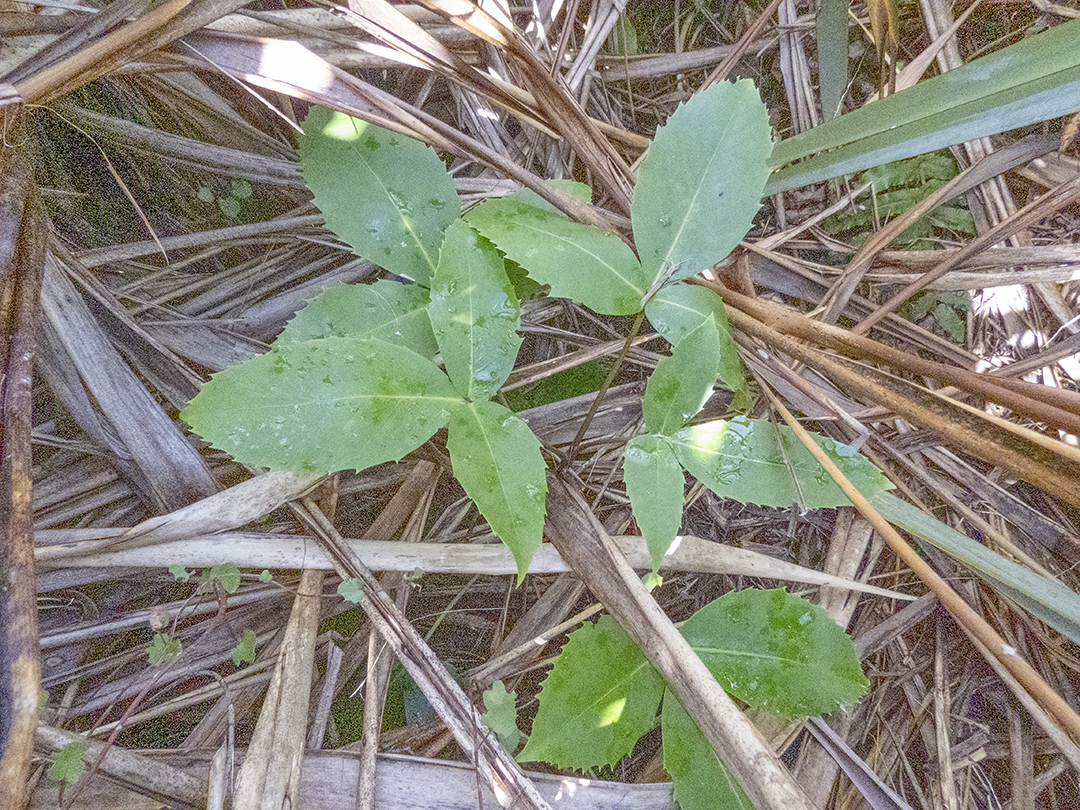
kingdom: Plantae
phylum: Tracheophyta
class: Magnoliopsida
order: Apiales
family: Araliaceae
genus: Neopanax
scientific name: Neopanax colensoi
